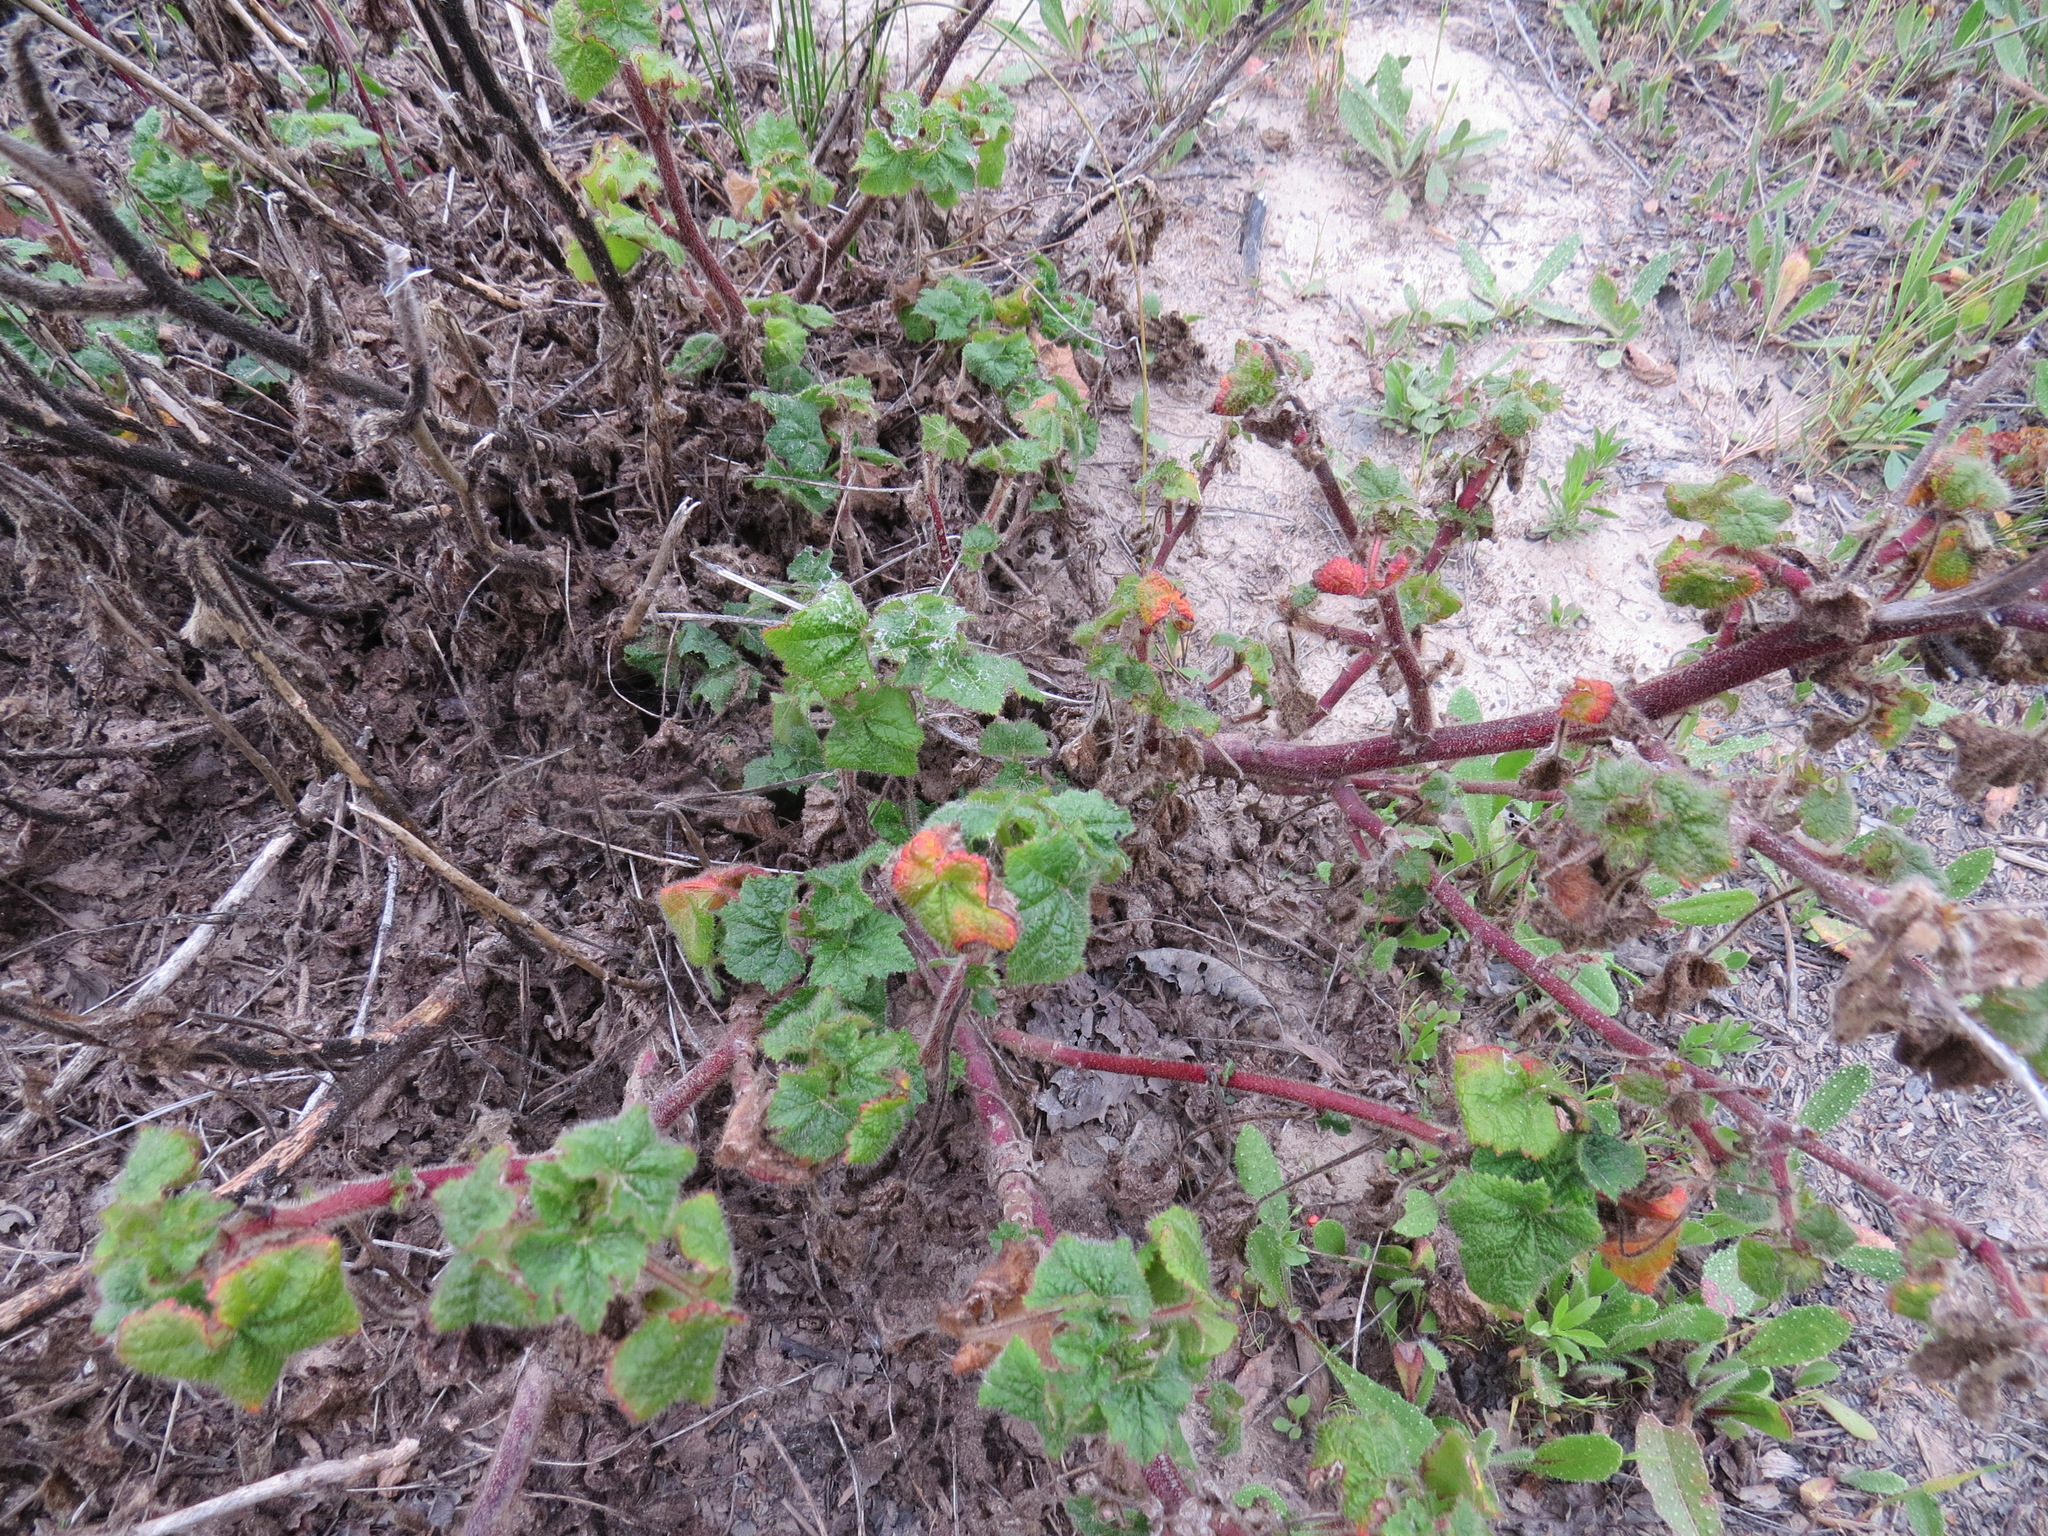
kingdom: Plantae
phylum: Tracheophyta
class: Magnoliopsida
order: Boraginales
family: Hydrophyllaceae
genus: Phacelia
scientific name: Phacelia malvifolia
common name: Mallow-leaf phacelia
